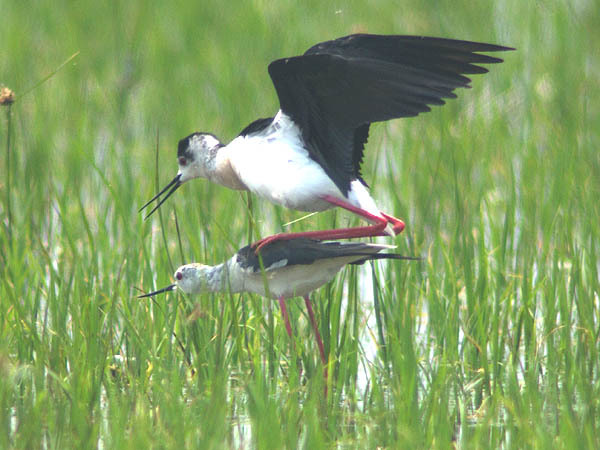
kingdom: Animalia
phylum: Chordata
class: Aves
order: Charadriiformes
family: Recurvirostridae
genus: Himantopus
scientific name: Himantopus himantopus
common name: Black-winged stilt
